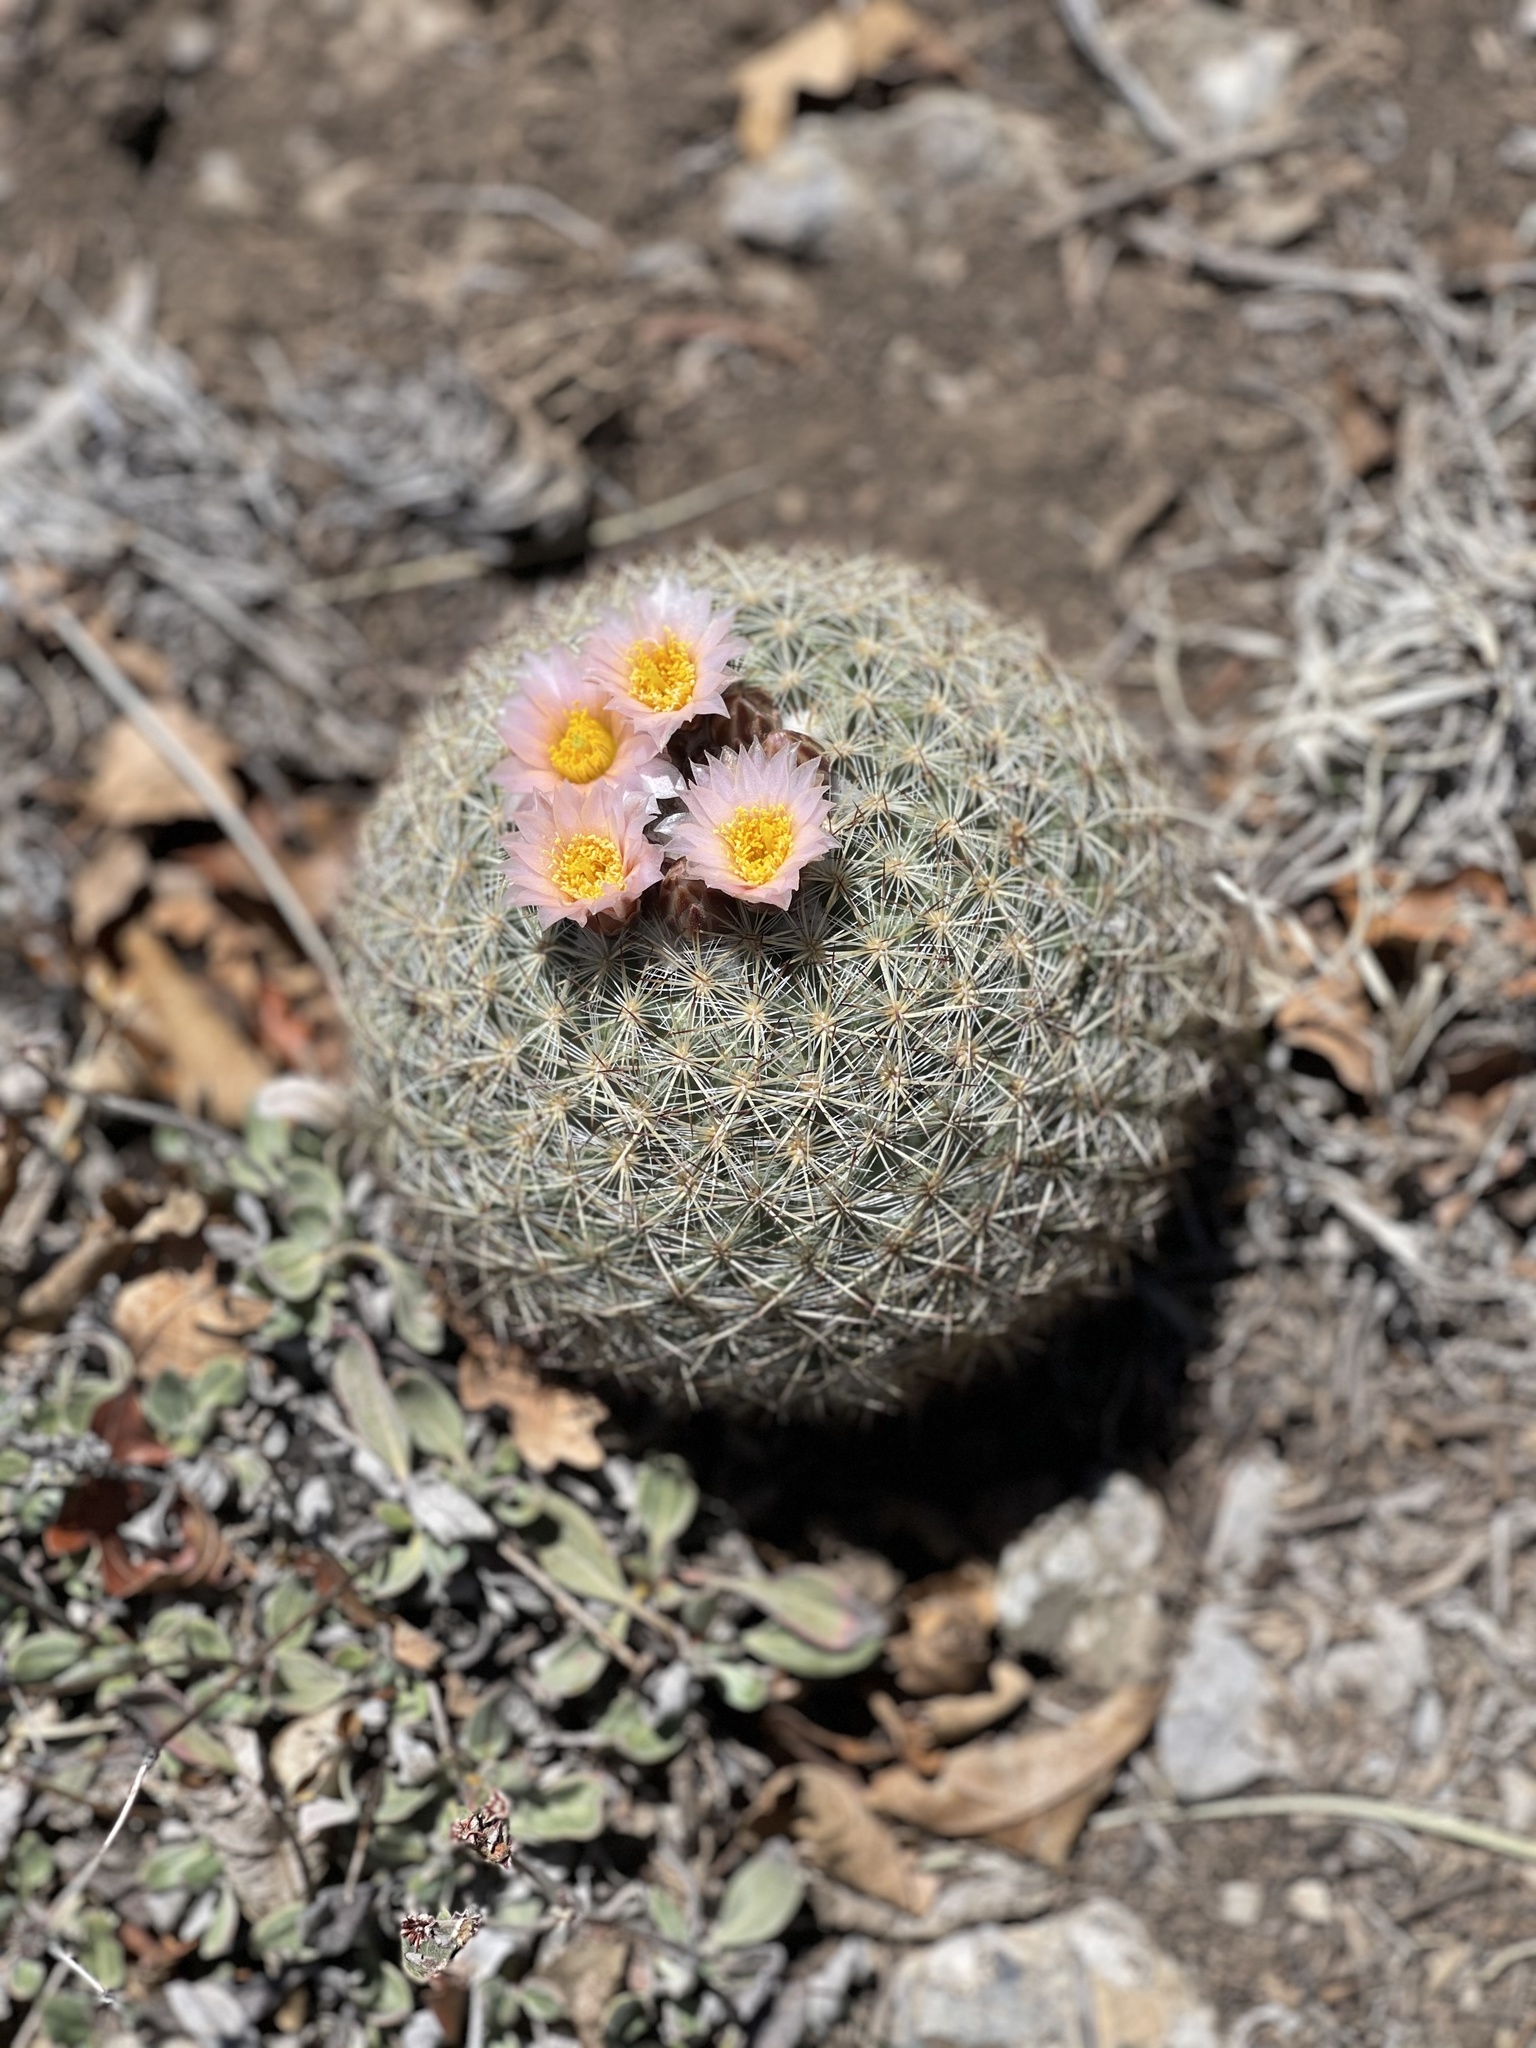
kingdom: Plantae
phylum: Tracheophyta
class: Magnoliopsida
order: Caryophyllales
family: Cactaceae
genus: Pediocactus
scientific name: Pediocactus simpsonii
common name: Simpson's hedgehog cactus
